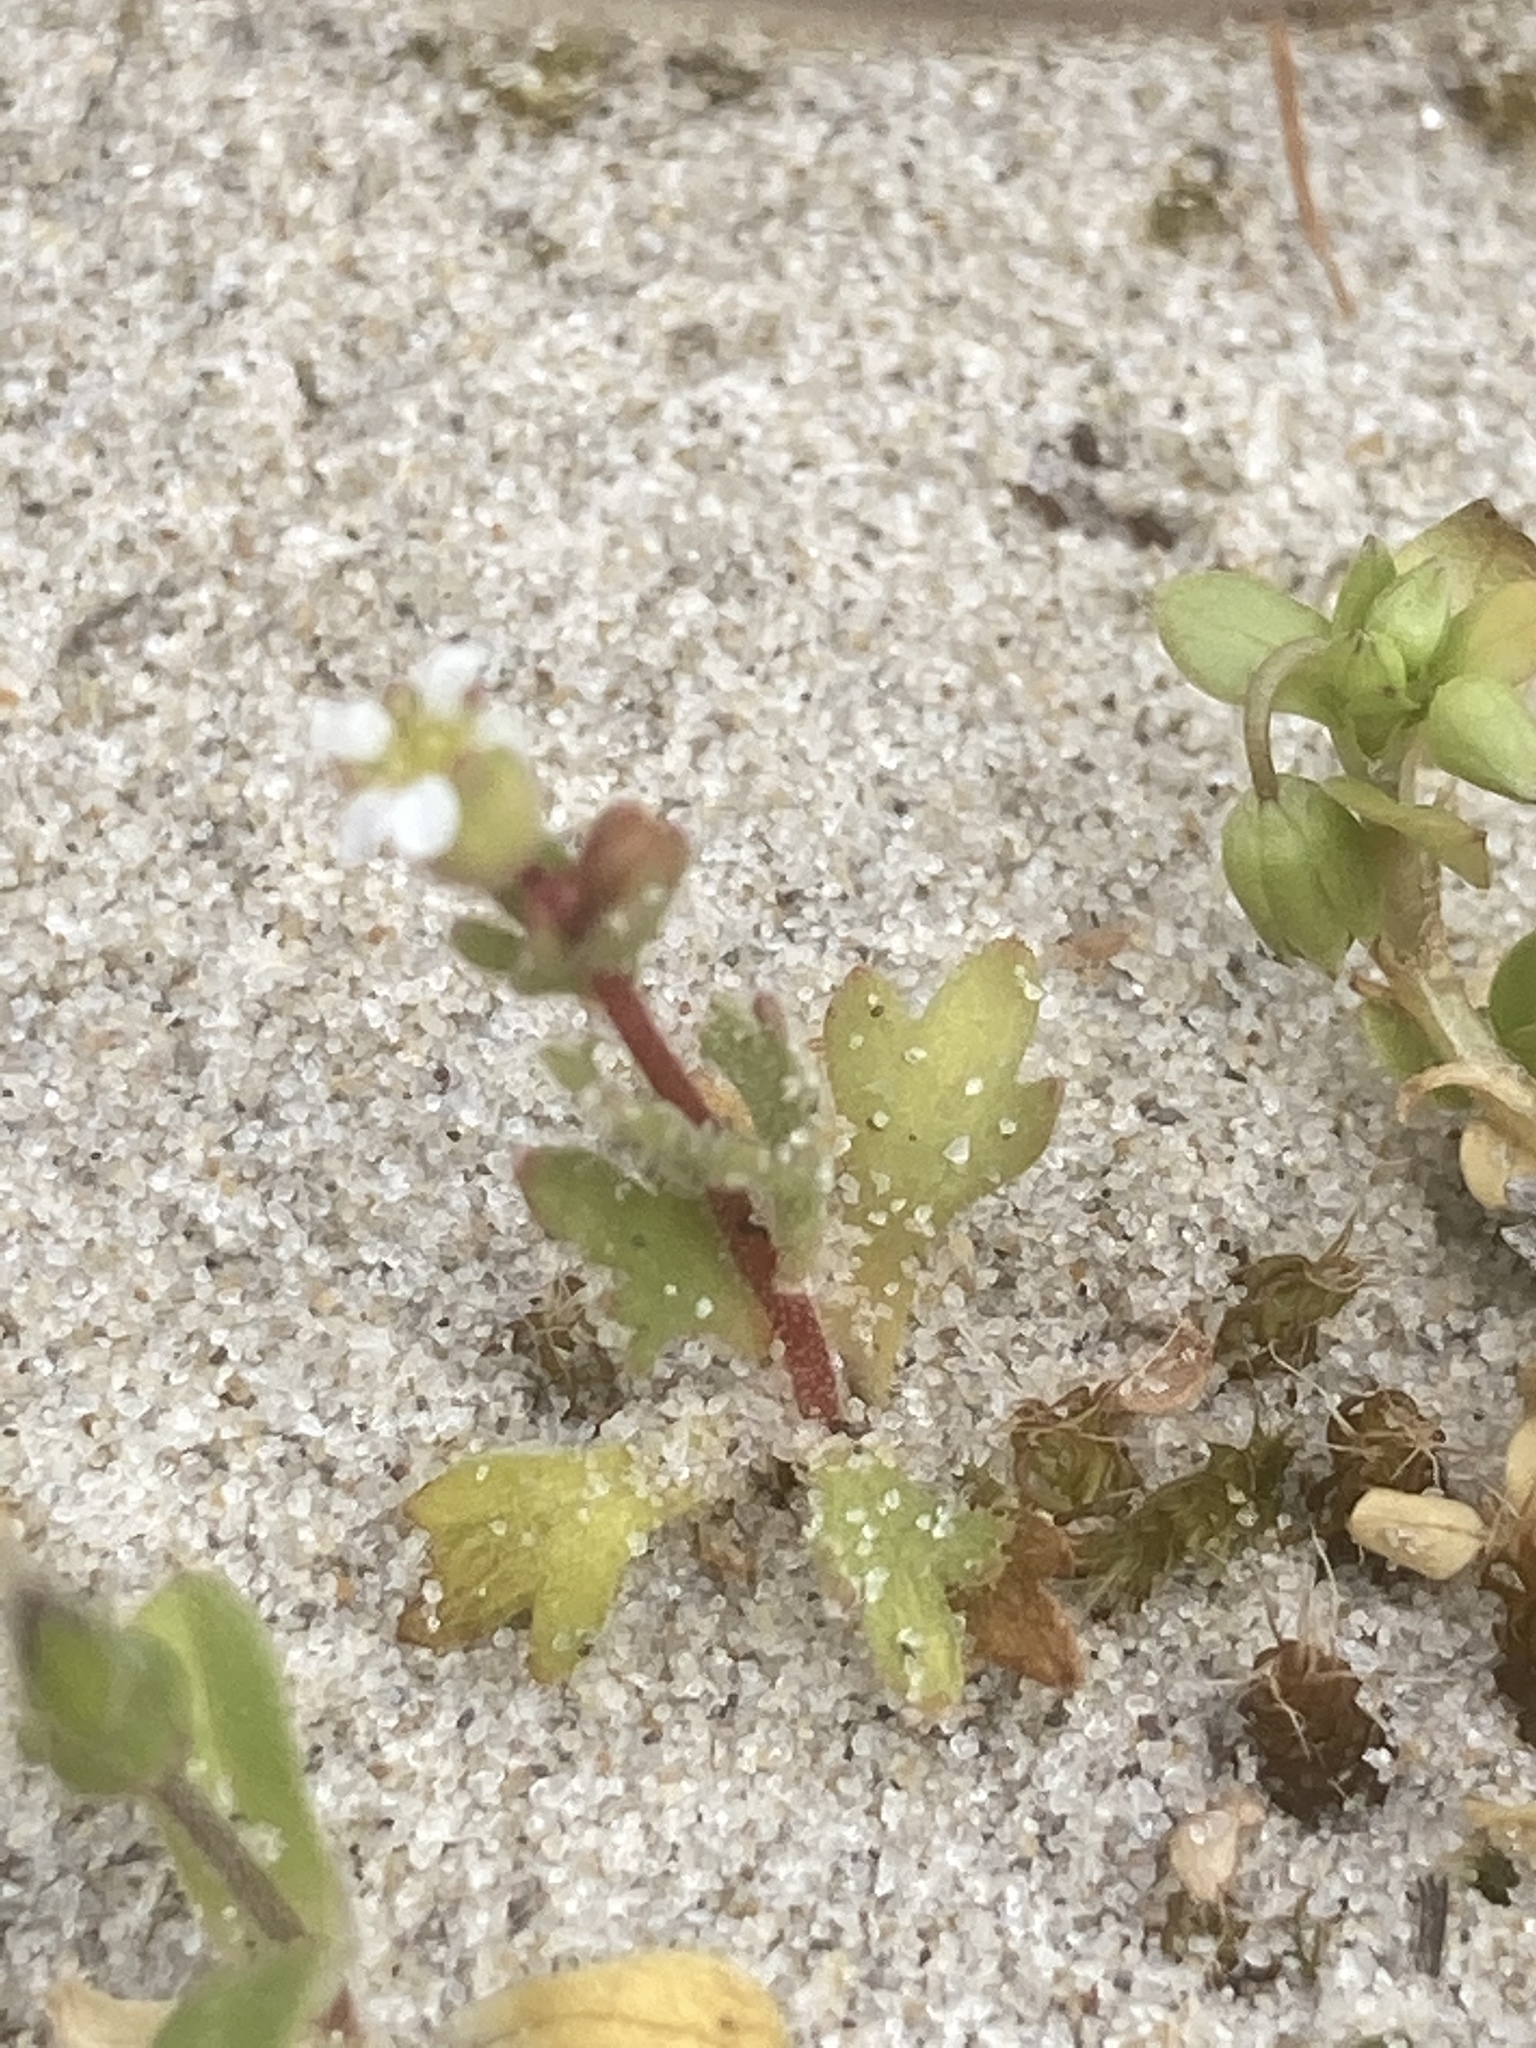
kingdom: Plantae
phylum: Tracheophyta
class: Magnoliopsida
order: Saxifragales
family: Saxifragaceae
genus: Saxifraga
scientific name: Saxifraga tridactylites
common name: Rue-leaved saxifrage
